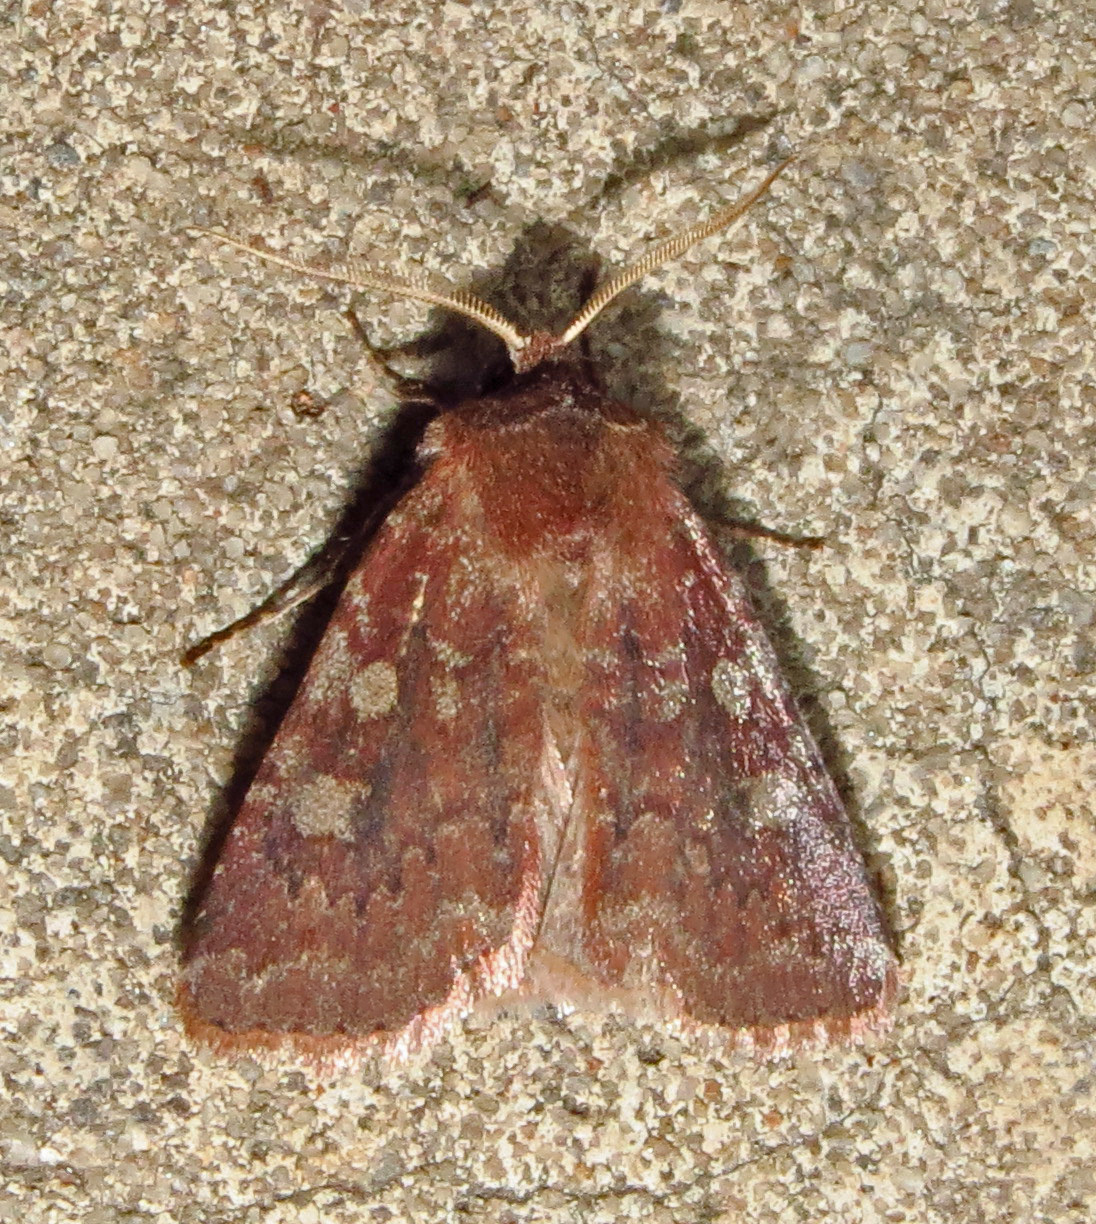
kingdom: Animalia
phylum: Arthropoda
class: Insecta
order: Lepidoptera
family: Noctuidae
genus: Cerastis
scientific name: Cerastis tenebrifera
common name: Reddish speckled dart
